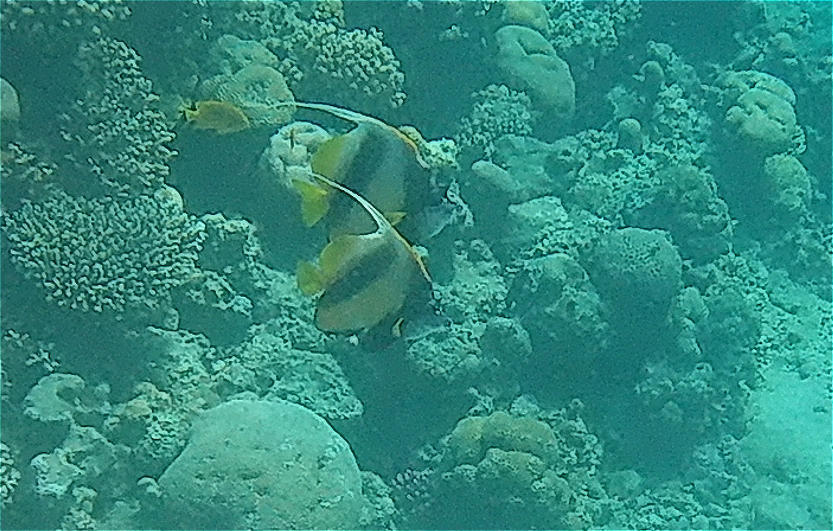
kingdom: Animalia
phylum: Chordata
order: Perciformes
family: Chaetodontidae
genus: Heniochus
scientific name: Heniochus intermedius
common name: Red sea bannerfish
